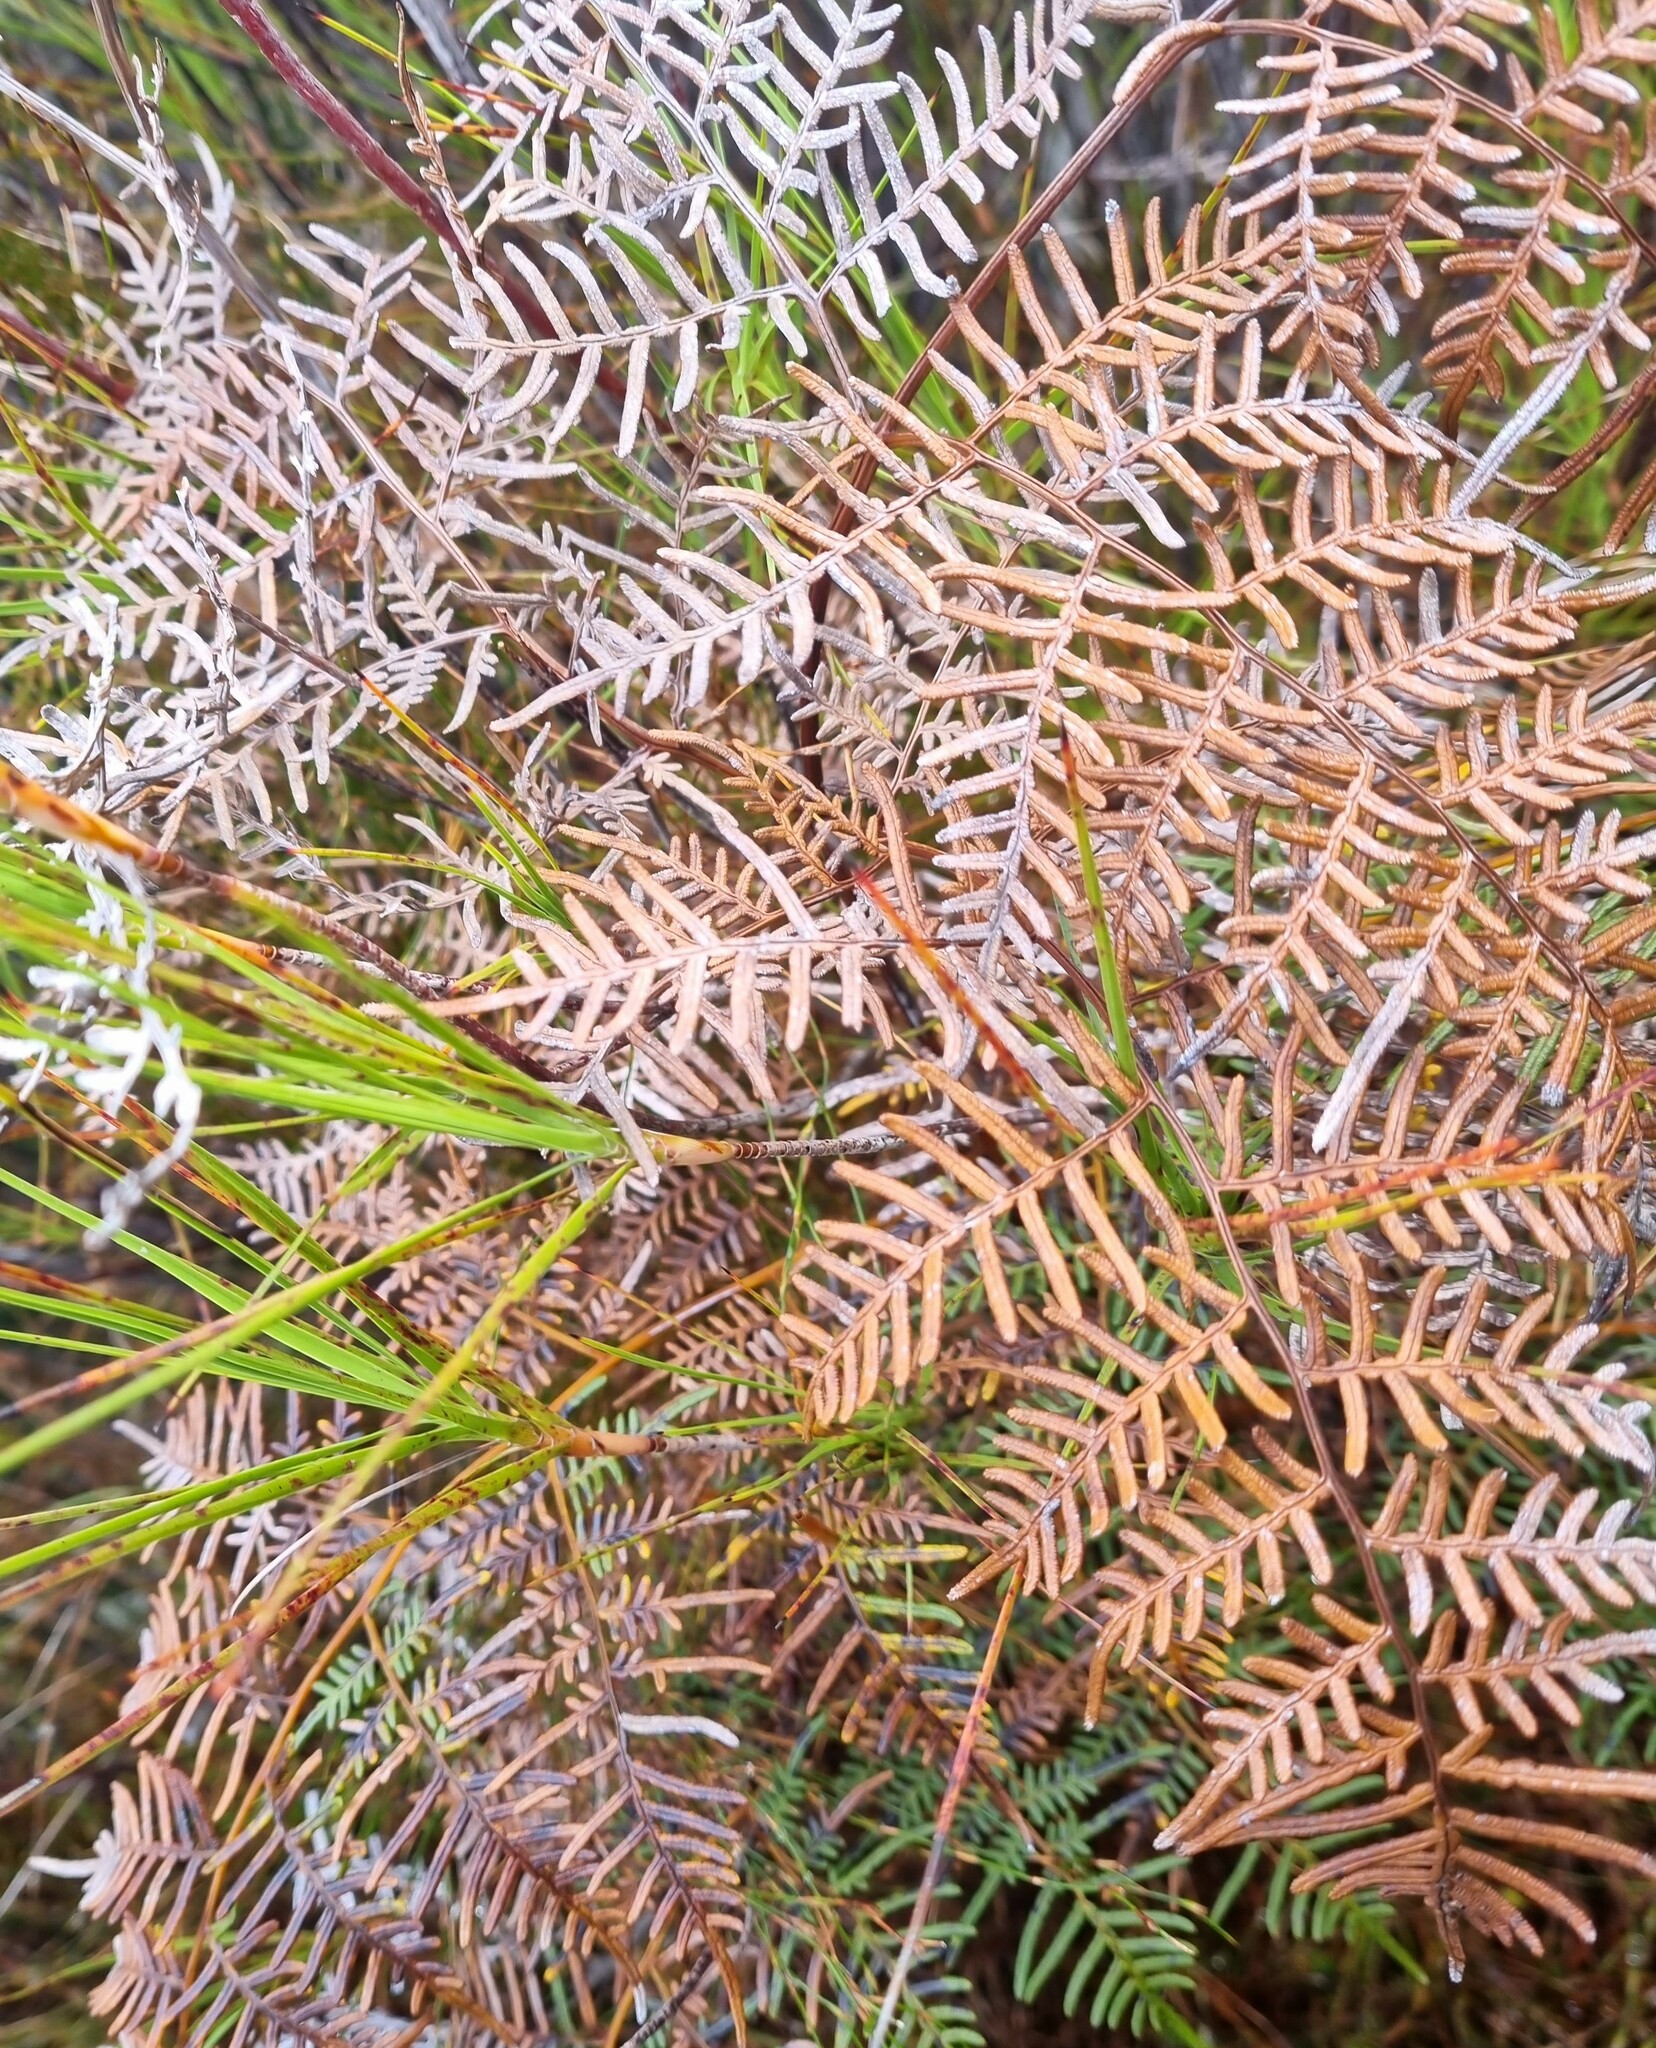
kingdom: Plantae
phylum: Tracheophyta
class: Polypodiopsida
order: Polypodiales
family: Dennstaedtiaceae
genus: Pteridium
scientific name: Pteridium esculentum
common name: Bracken fern
